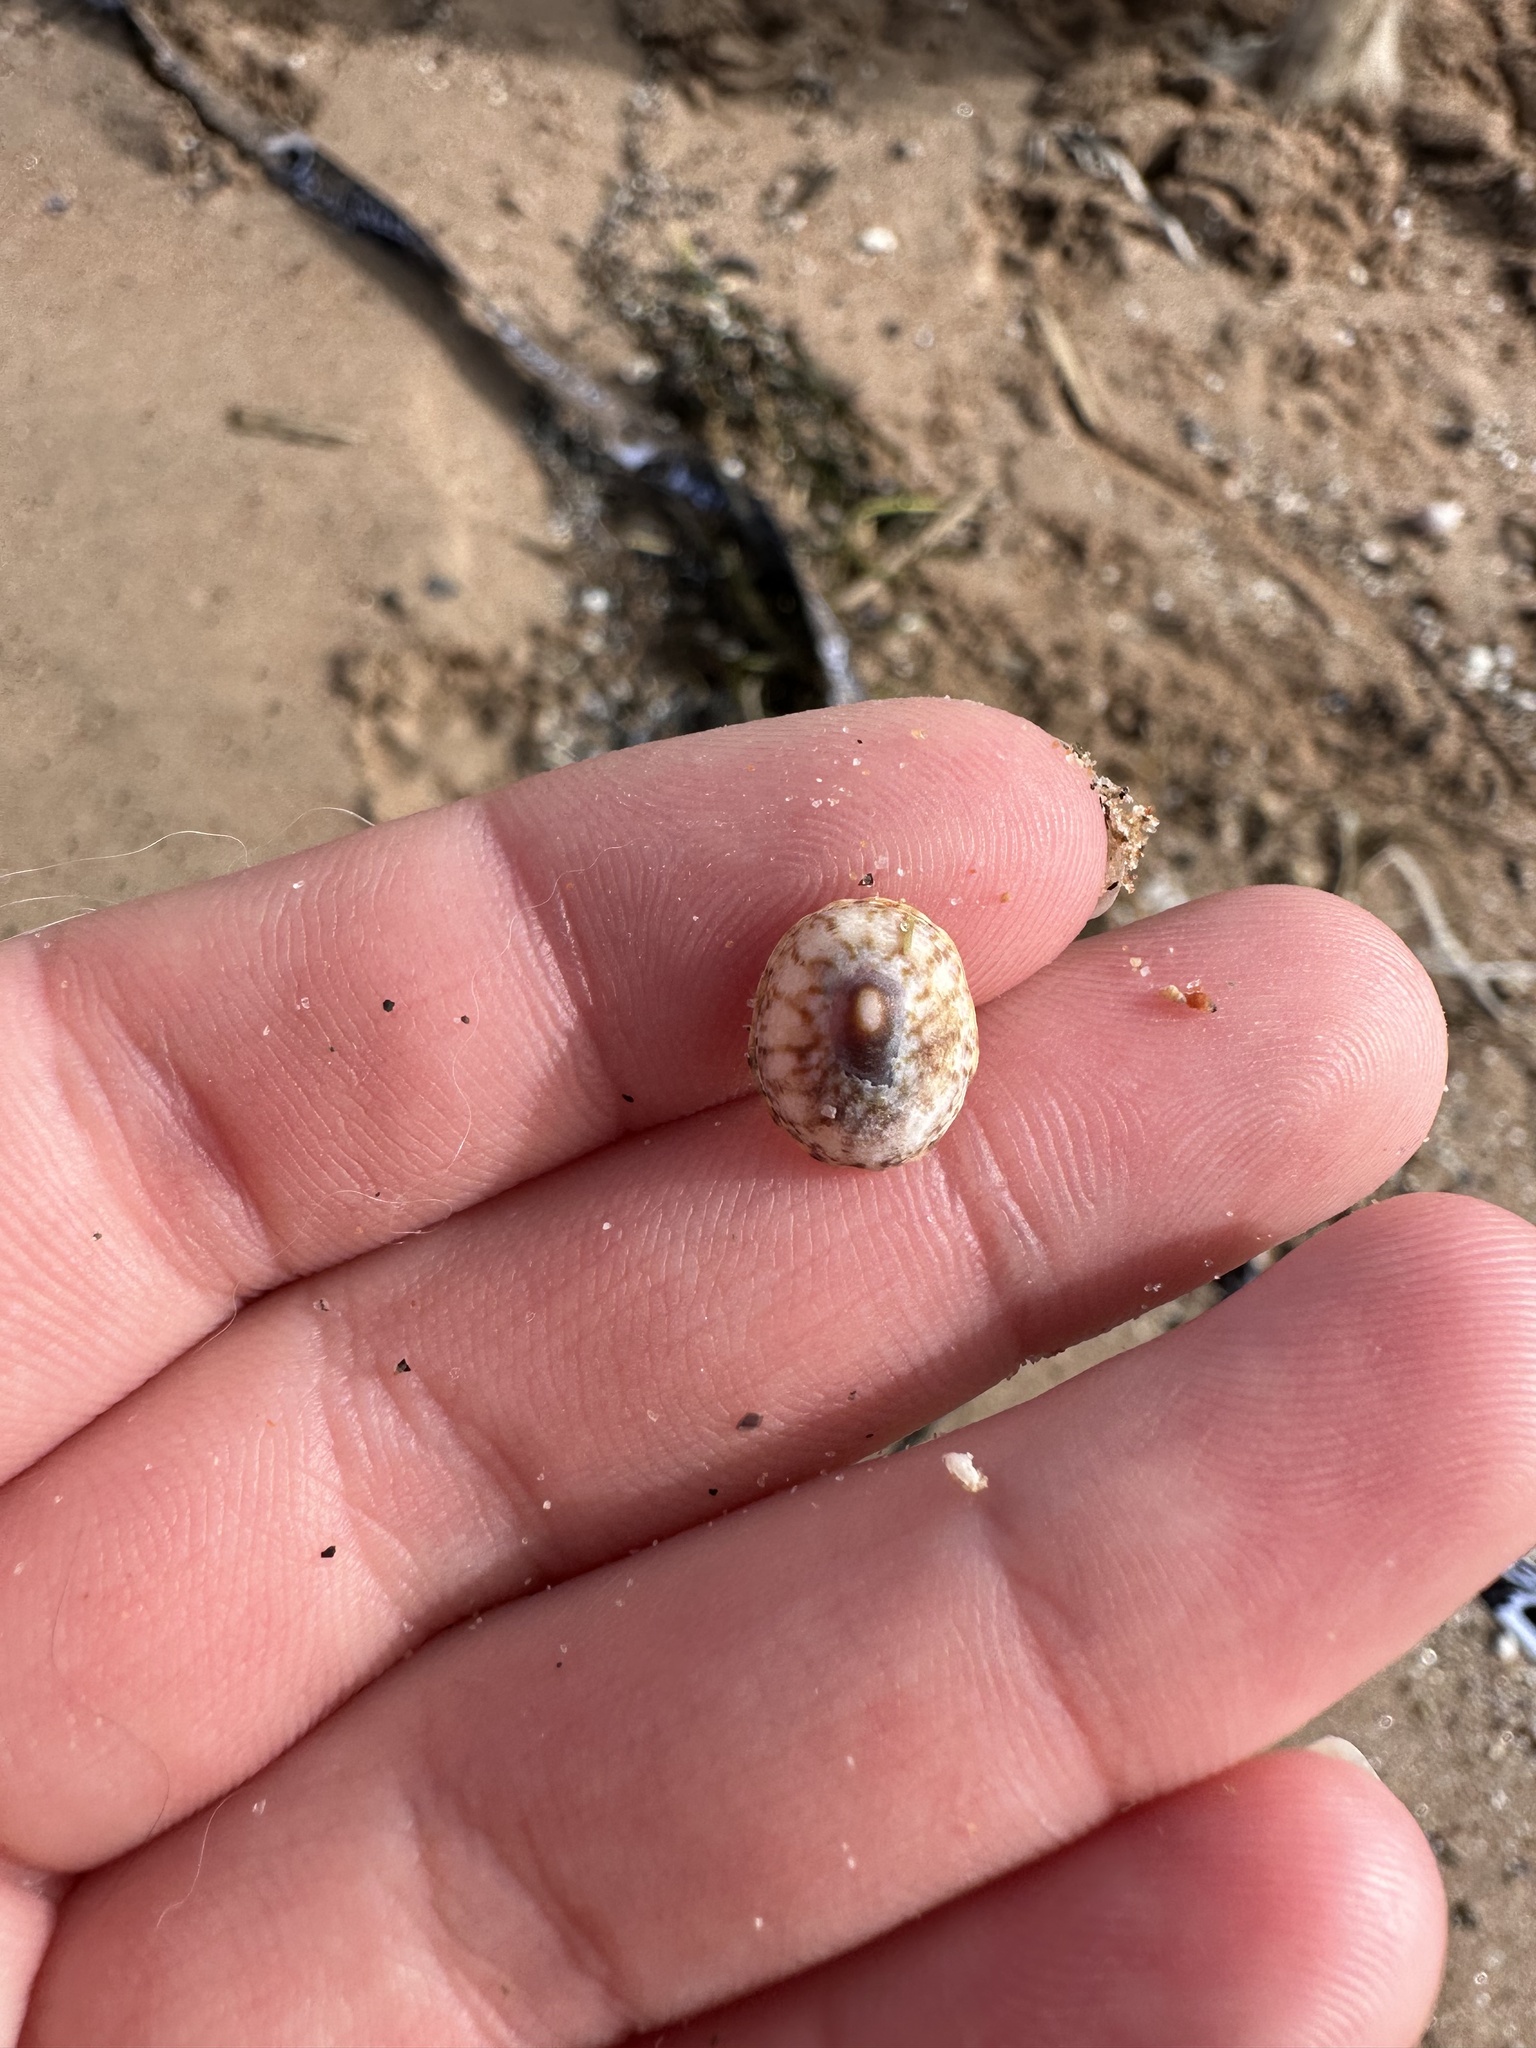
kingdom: Animalia
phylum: Mollusca
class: Gastropoda
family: Lottiidae
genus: Testudinalia
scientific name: Testudinalia testudinalis
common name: Common tortoiseshell limpet
